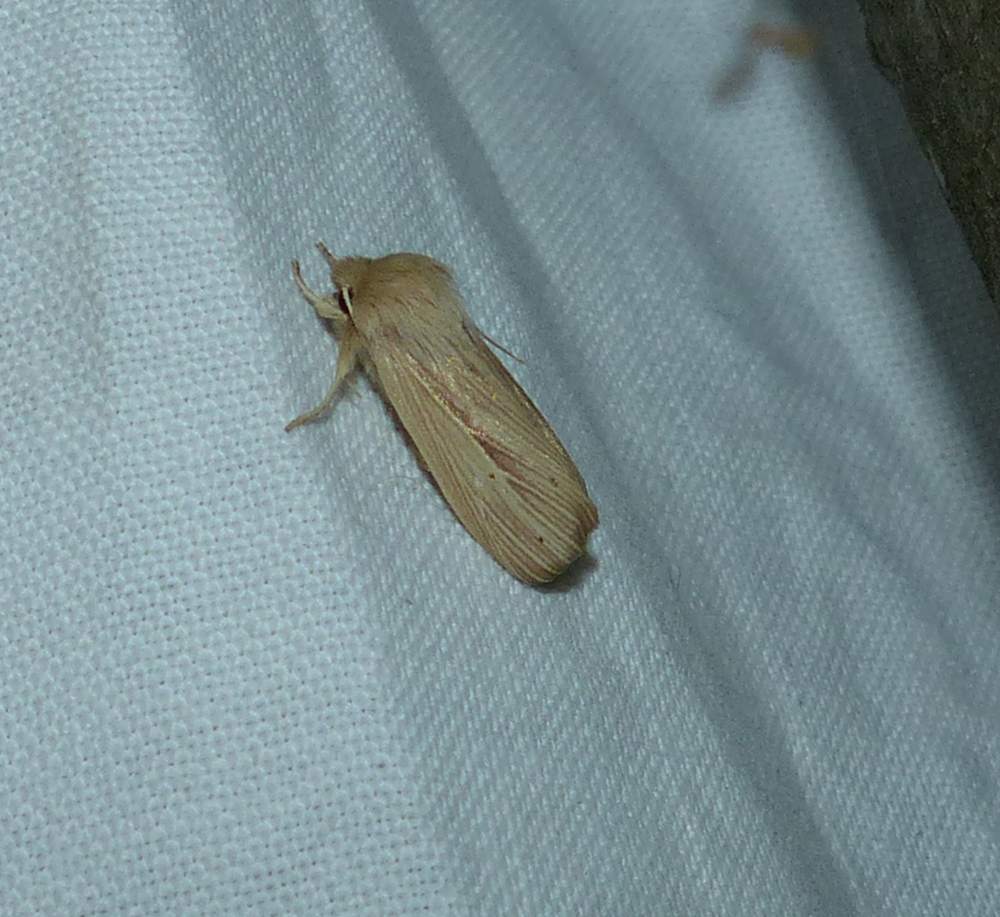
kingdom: Animalia
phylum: Arthropoda
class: Insecta
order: Lepidoptera
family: Noctuidae
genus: Mythimna
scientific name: Mythimna oxygala
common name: Lesser wainscot
